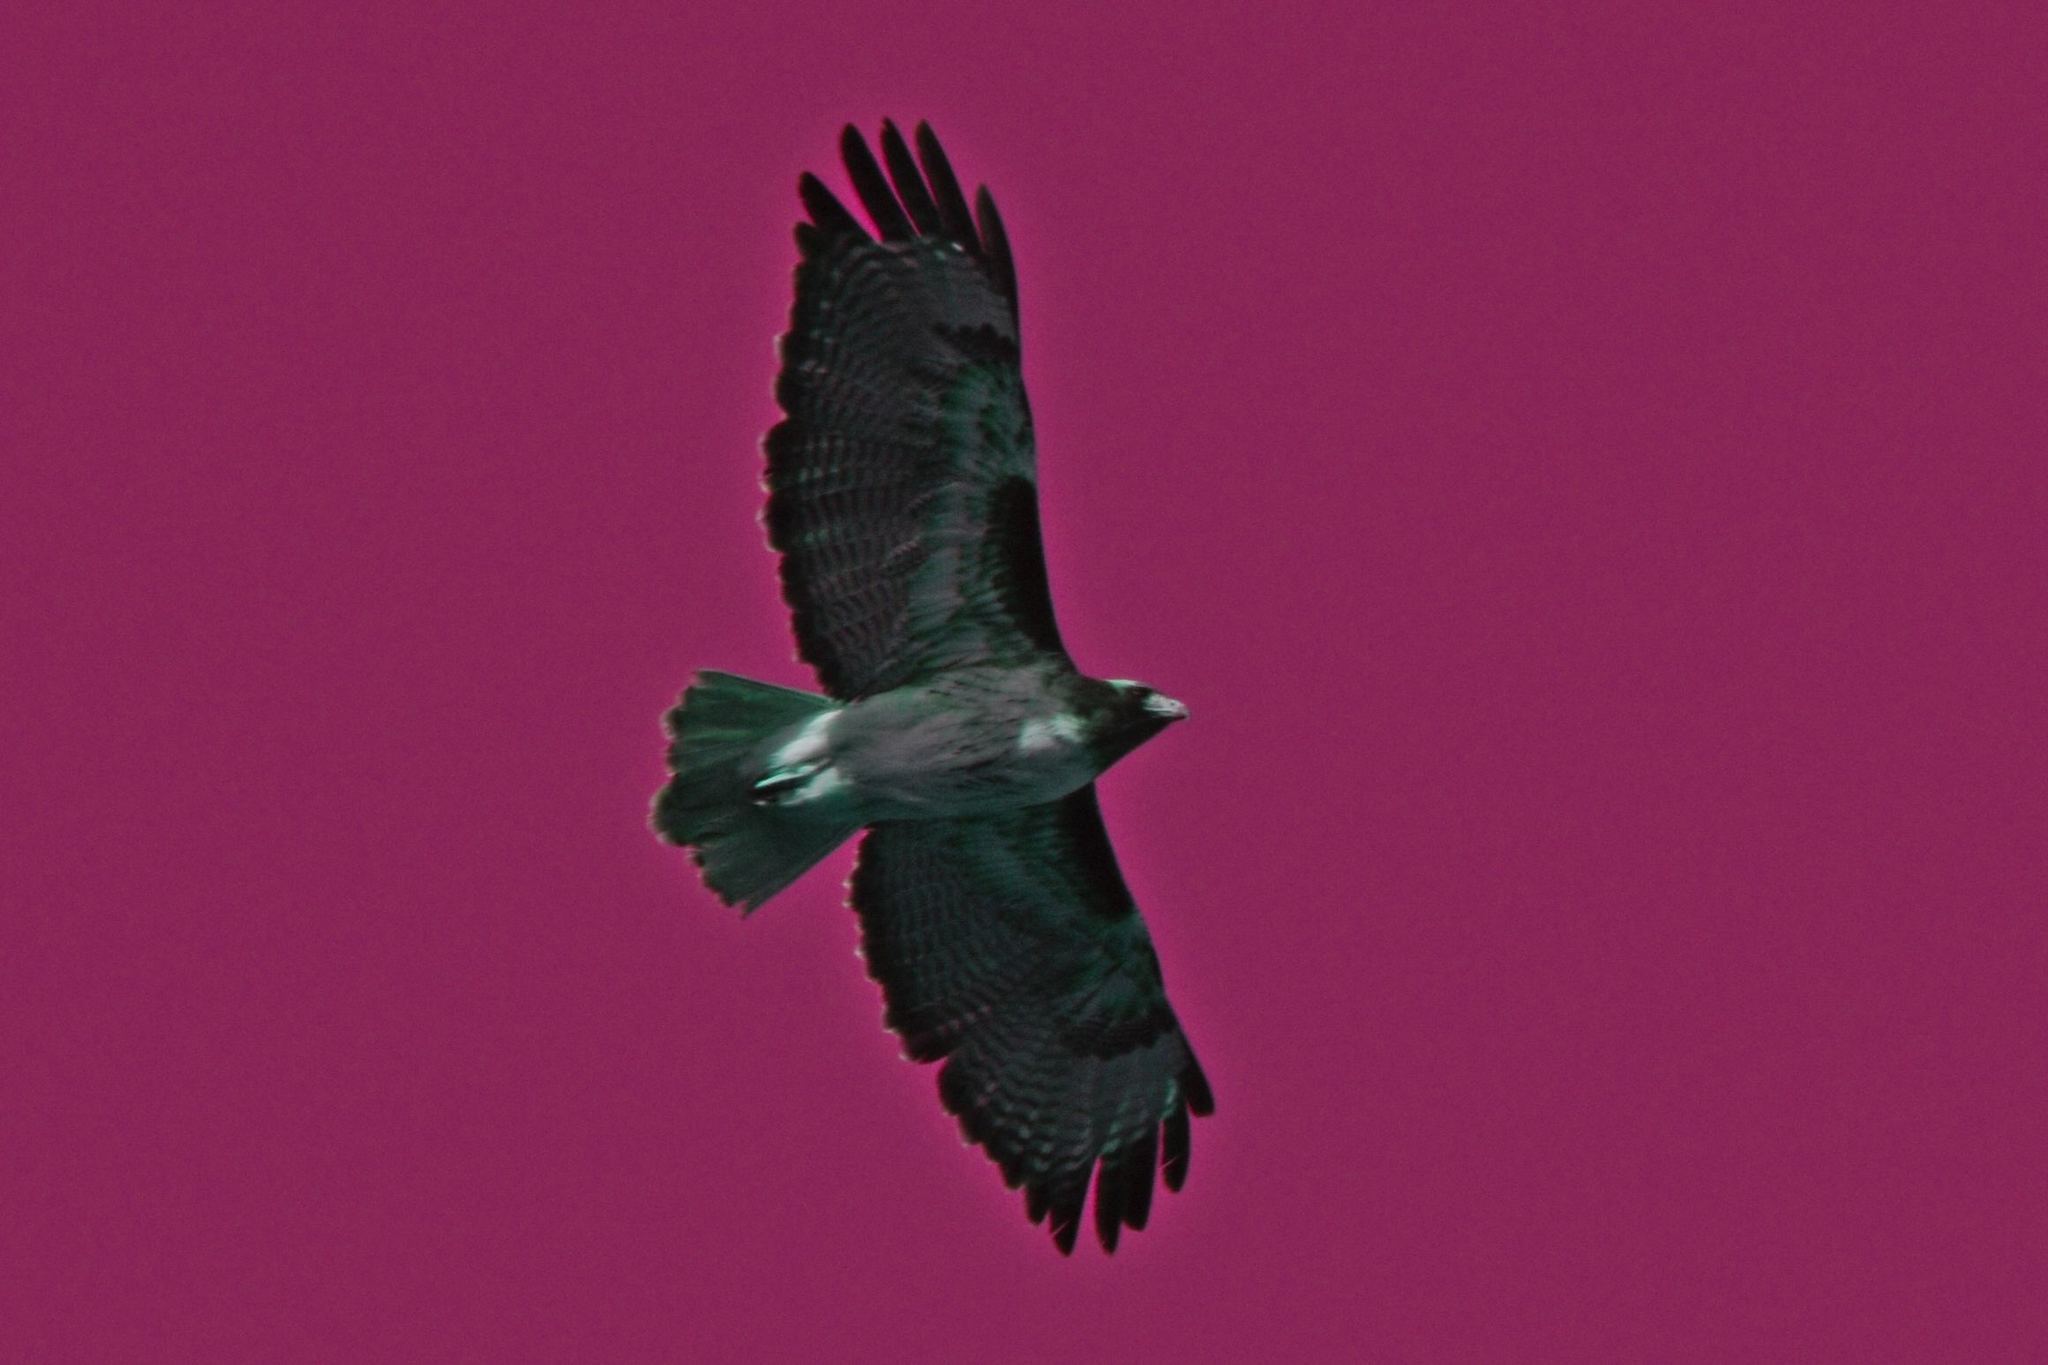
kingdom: Animalia
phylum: Chordata
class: Aves
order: Accipitriformes
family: Accipitridae
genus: Buteo
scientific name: Buteo jamaicensis
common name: Red-tailed hawk
